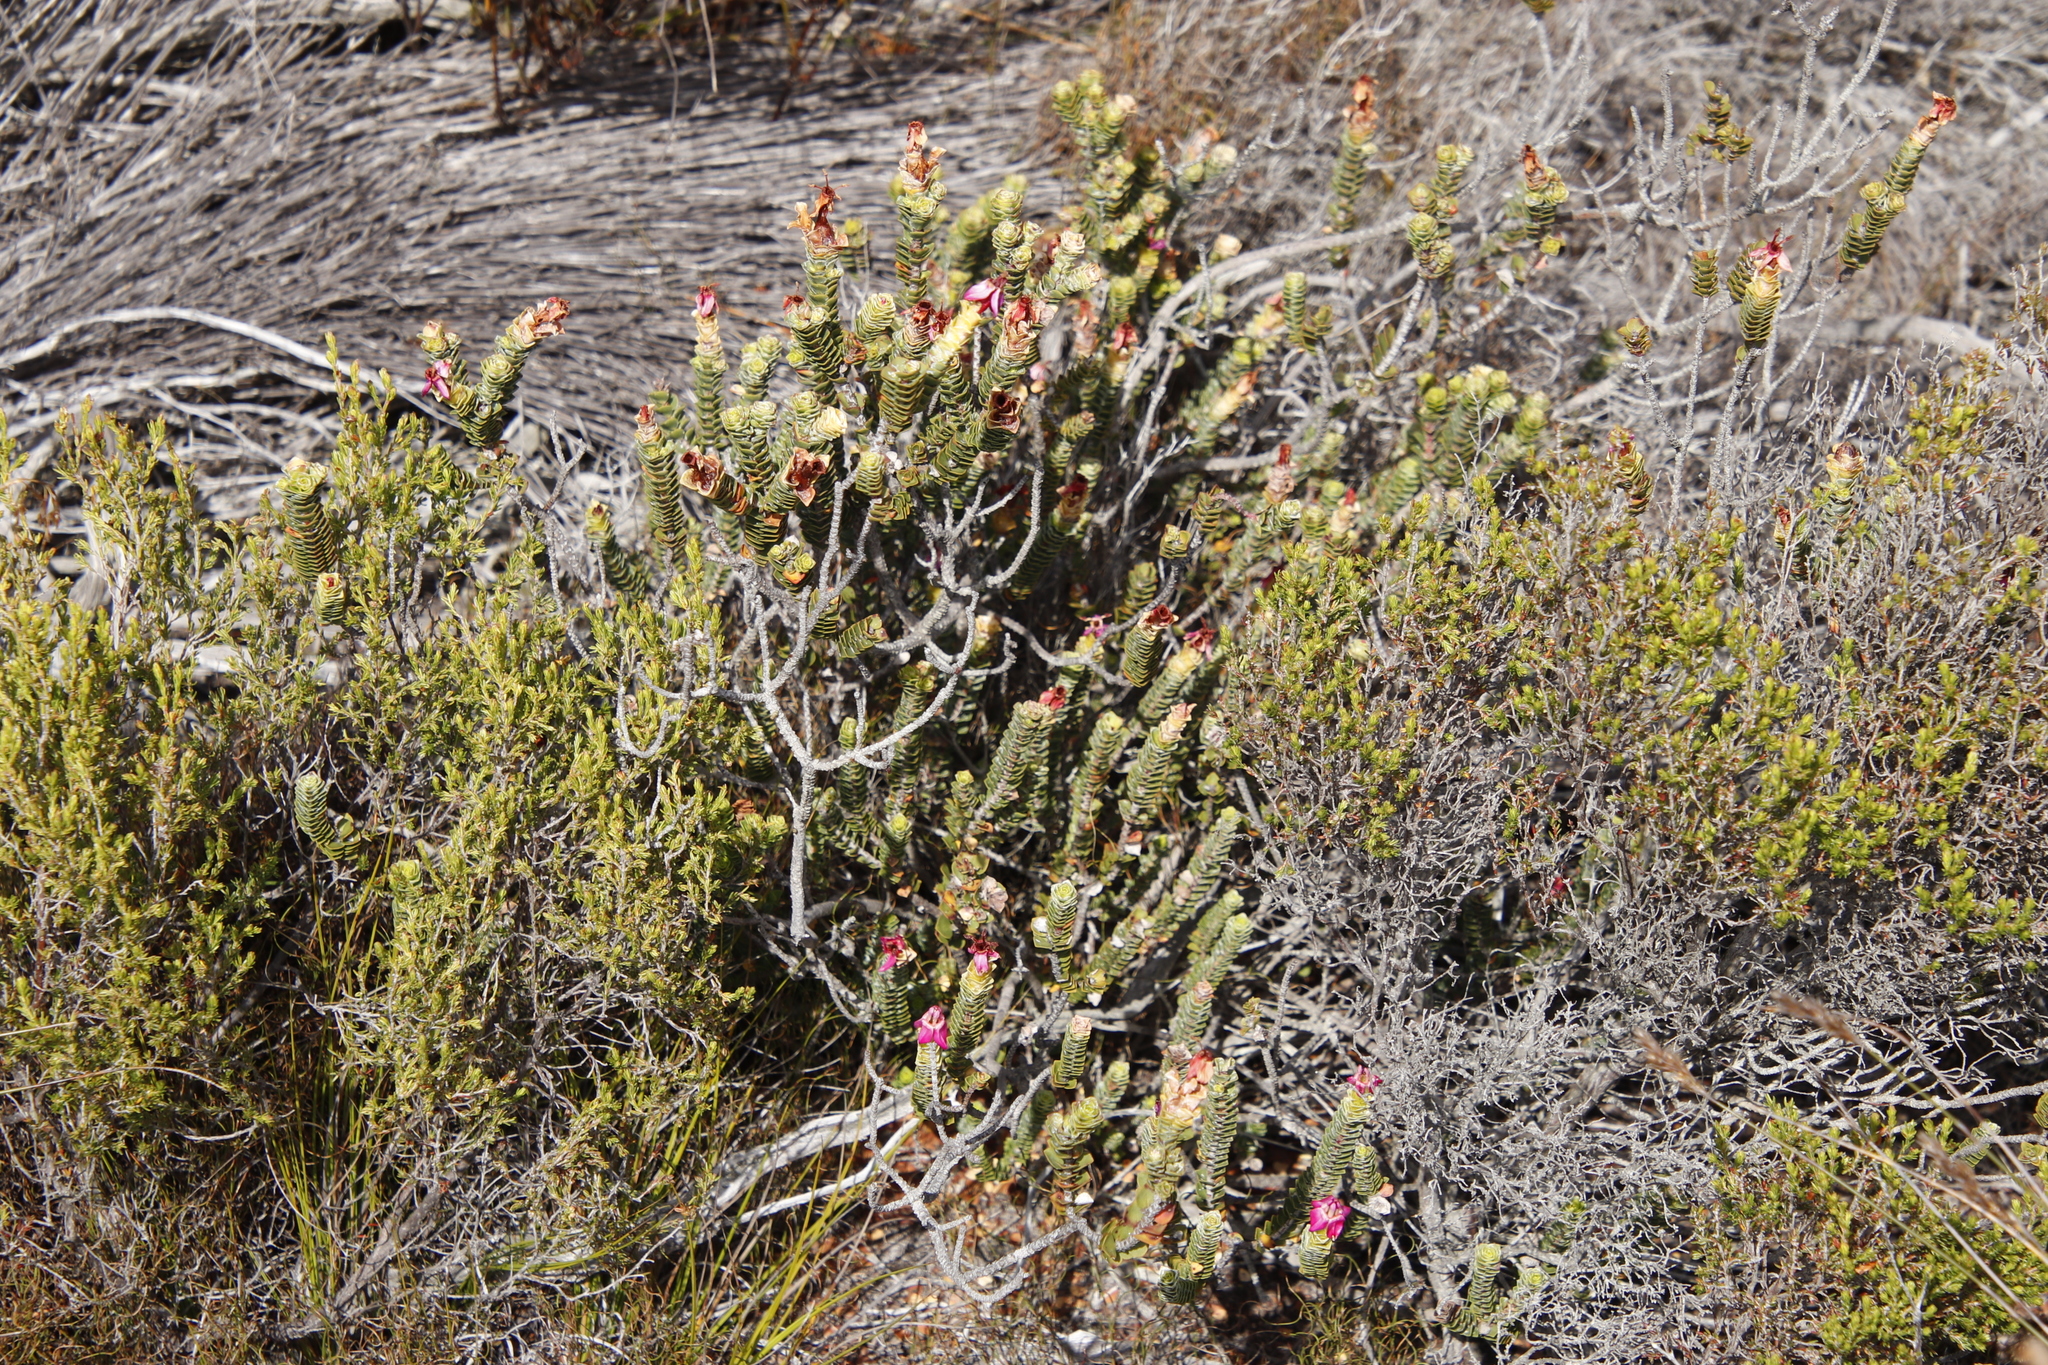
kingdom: Plantae
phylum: Tracheophyta
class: Magnoliopsida
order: Myrtales
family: Penaeaceae
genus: Saltera
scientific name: Saltera sarcocolla
